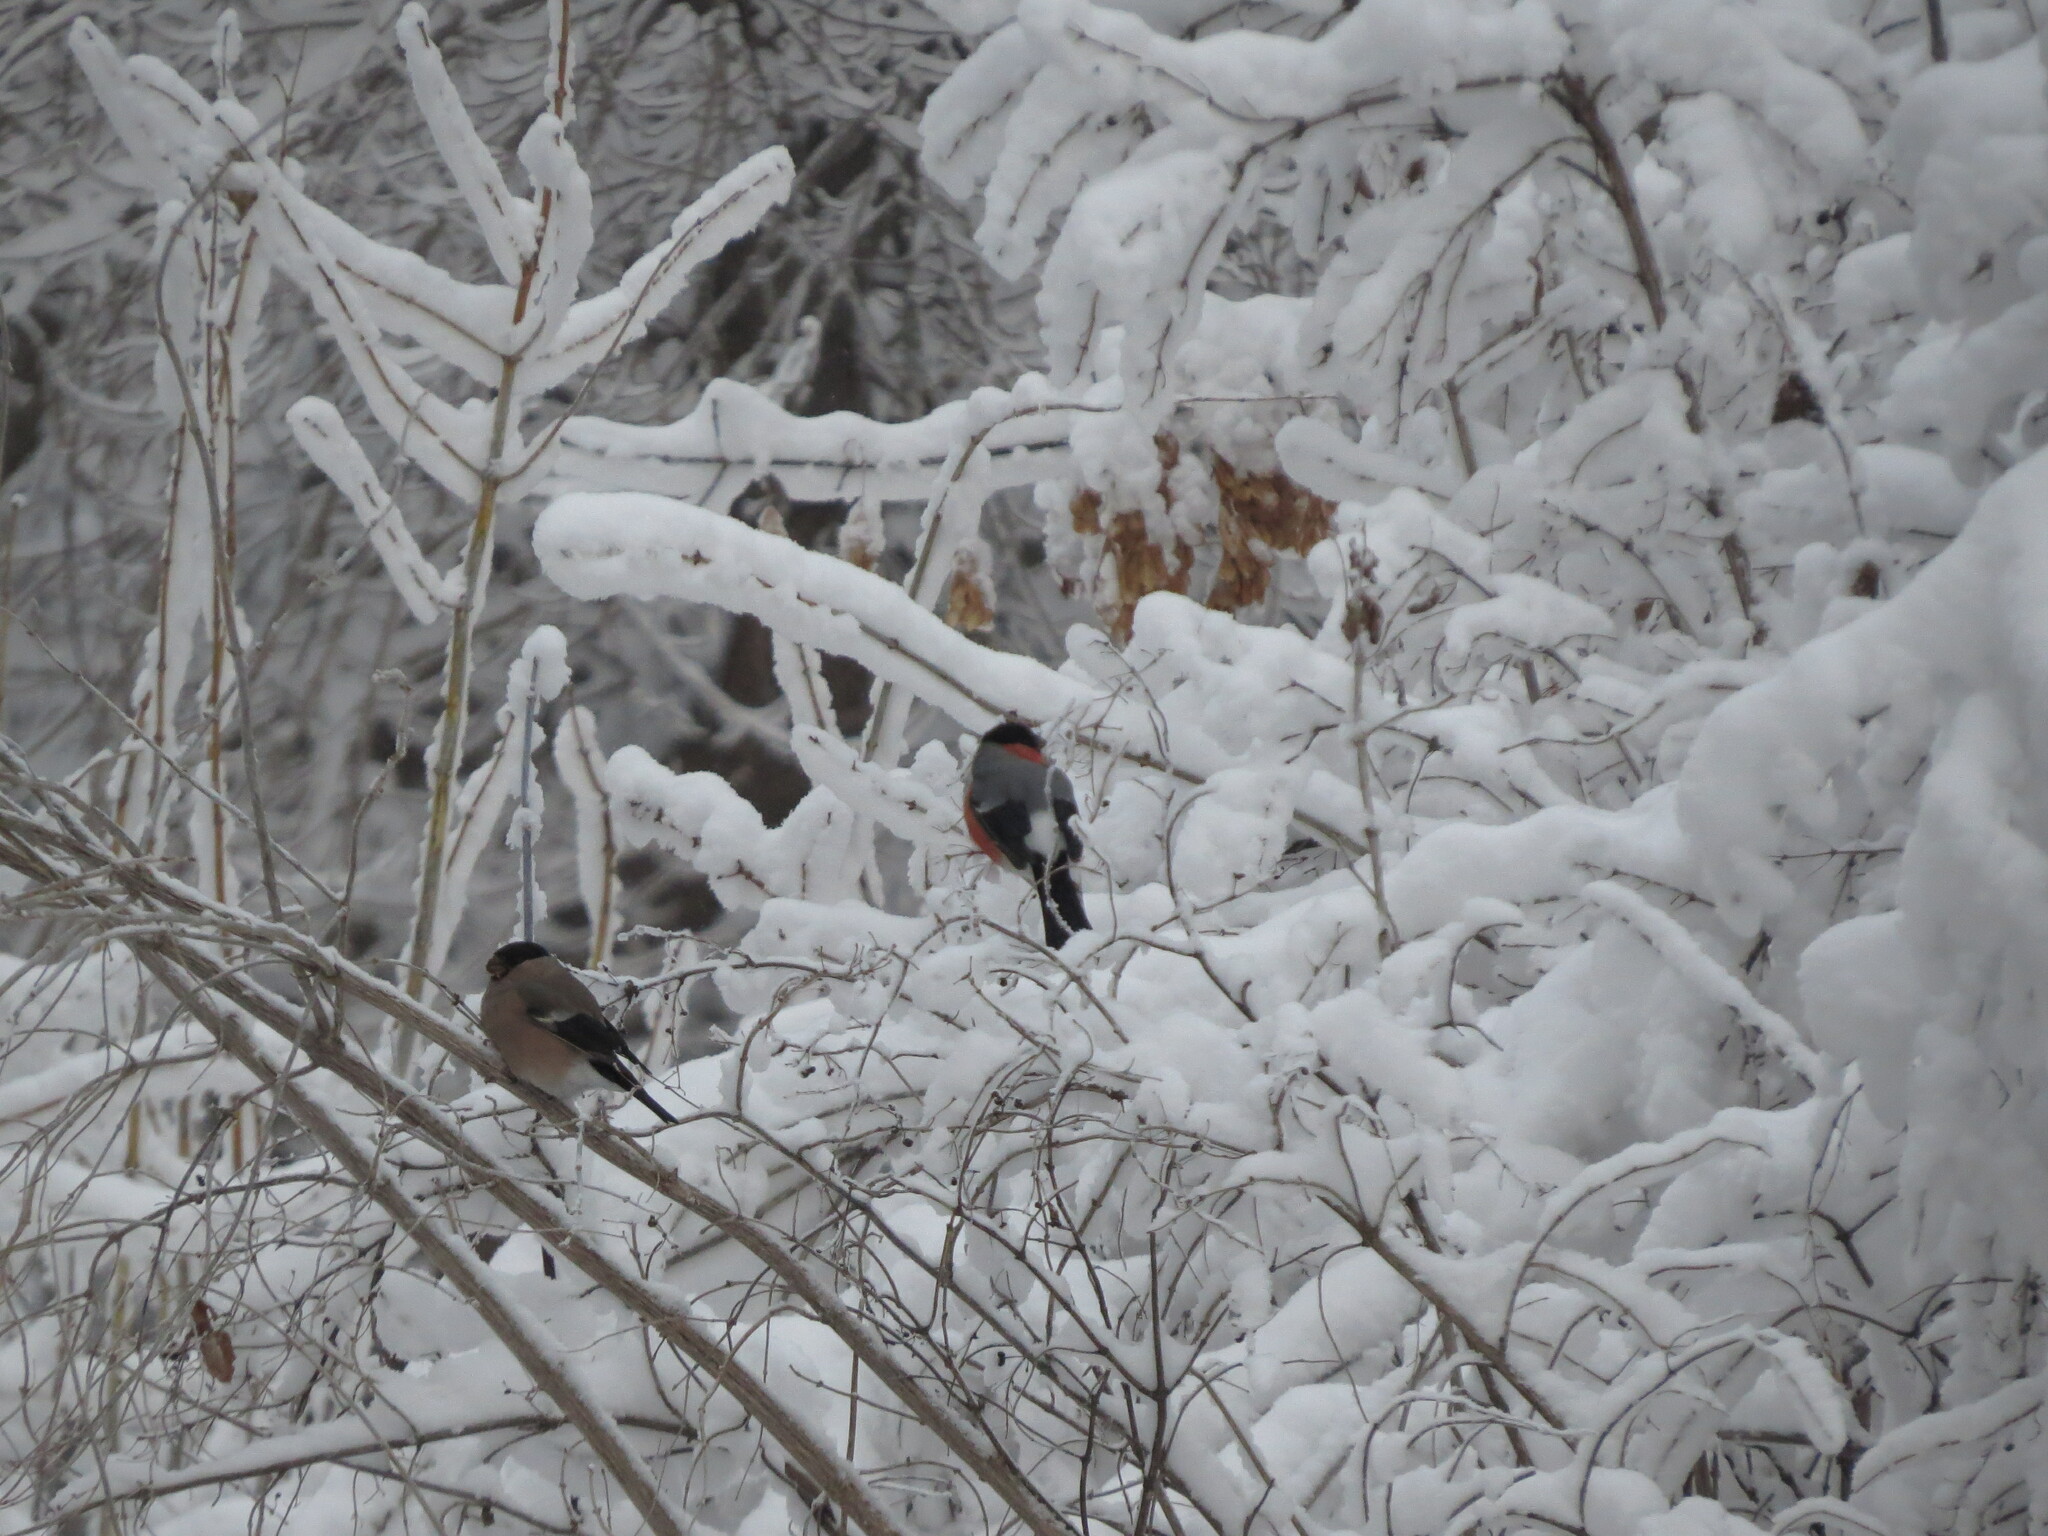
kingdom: Animalia
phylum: Chordata
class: Aves
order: Passeriformes
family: Fringillidae
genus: Pyrrhula
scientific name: Pyrrhula pyrrhula
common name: Eurasian bullfinch
